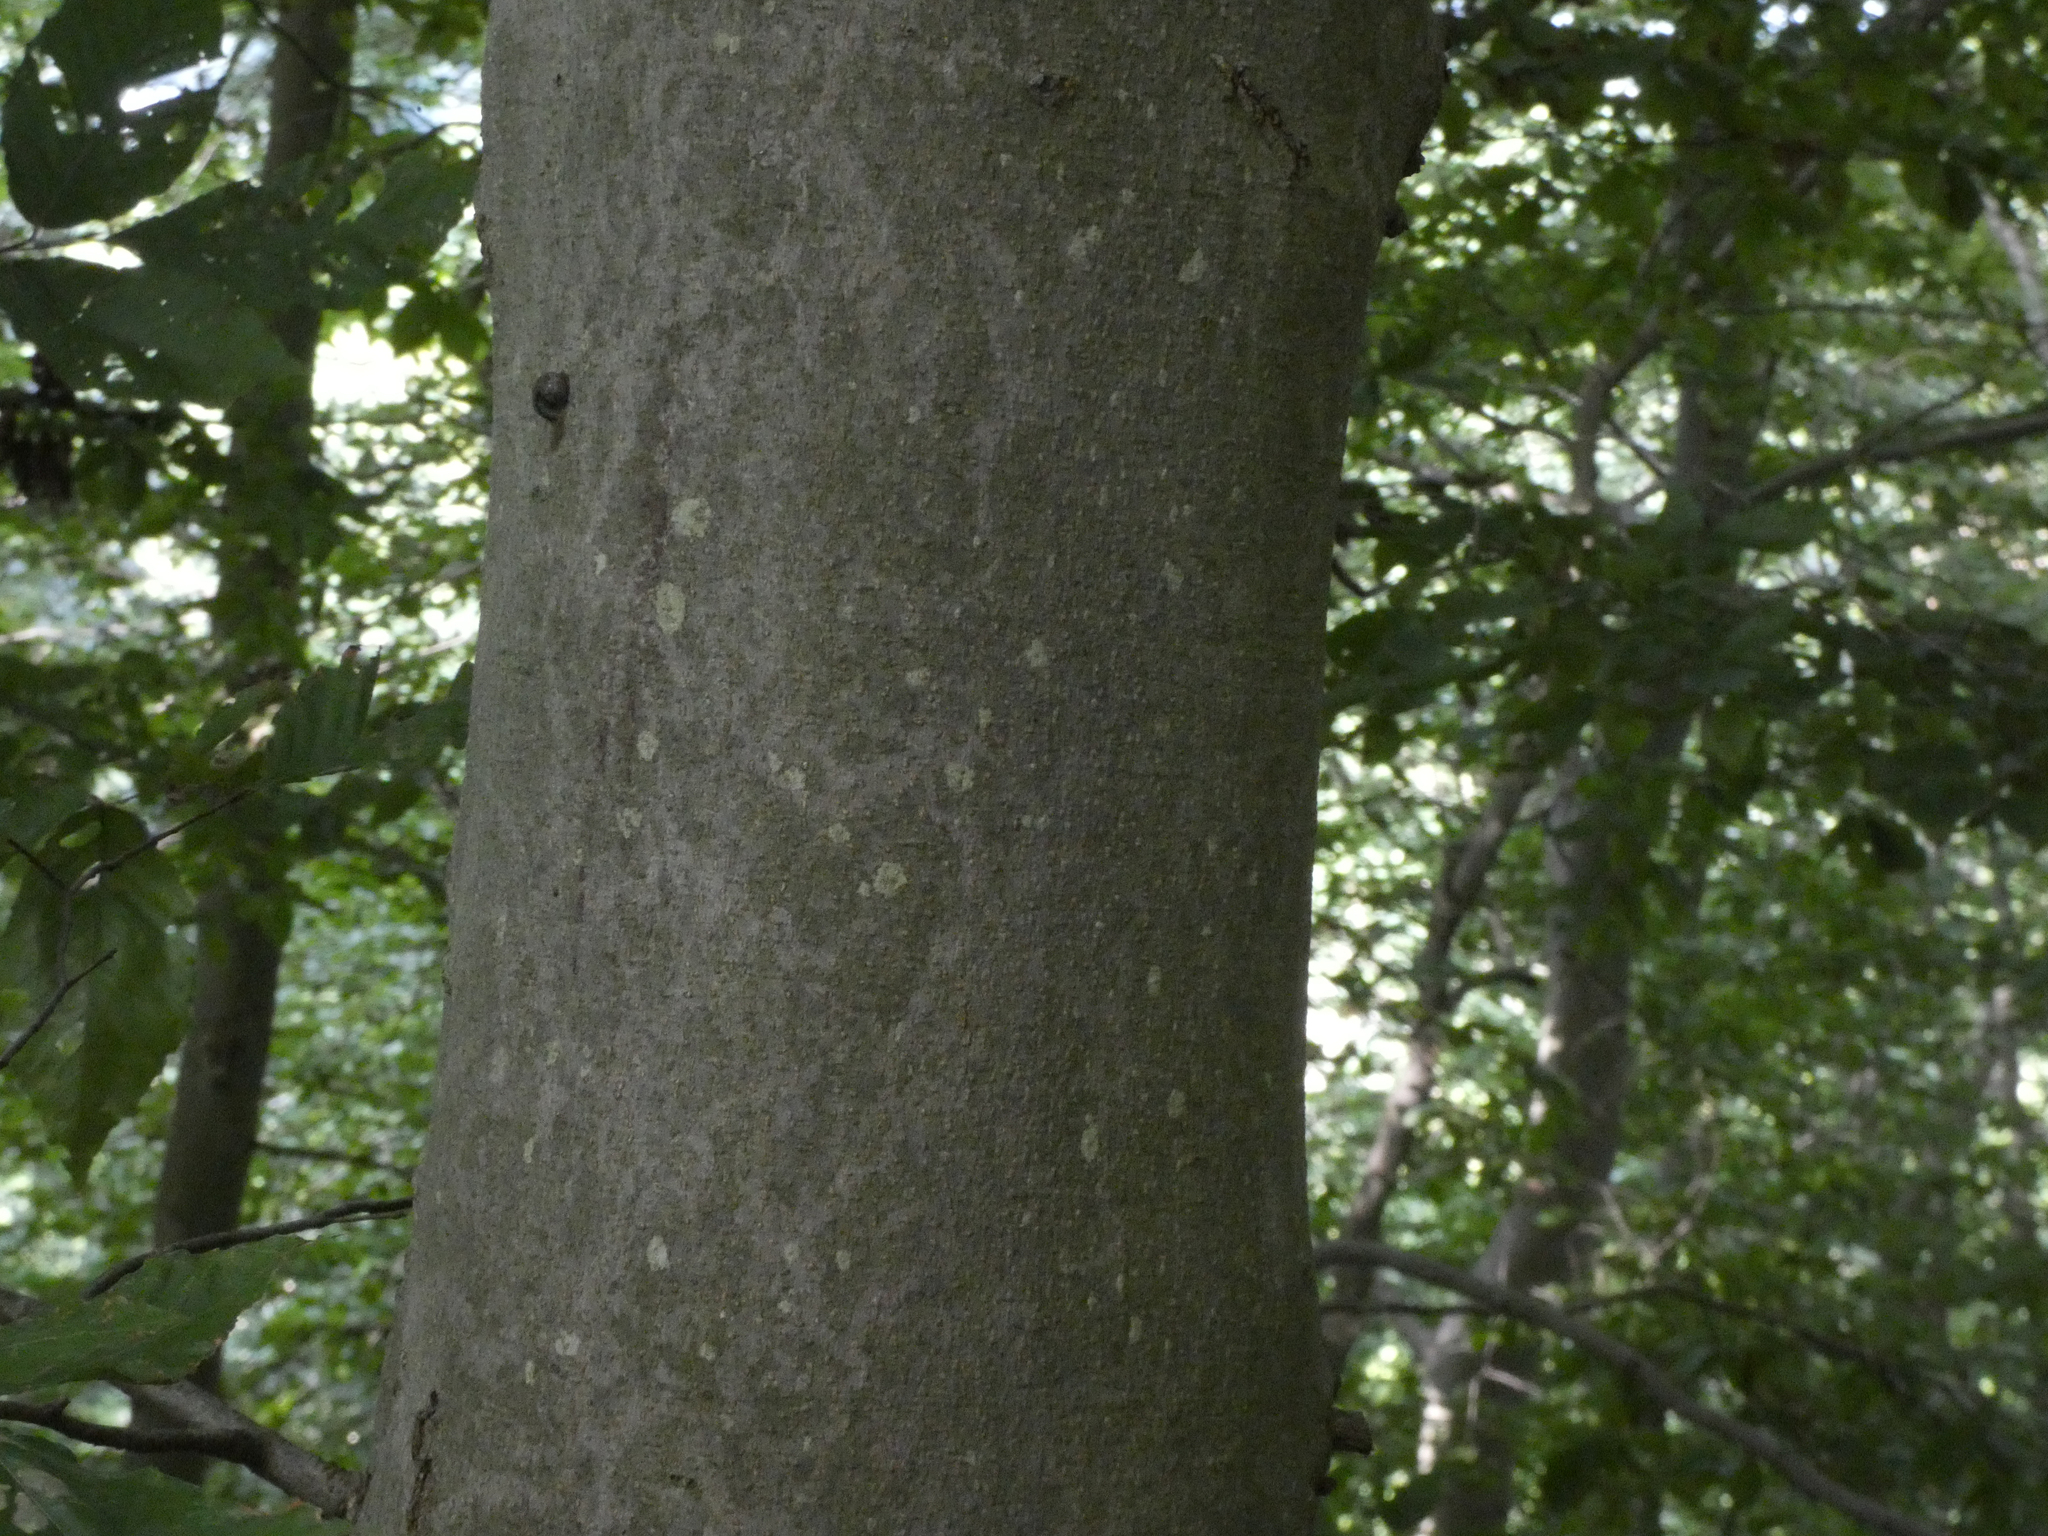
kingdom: Plantae
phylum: Tracheophyta
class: Magnoliopsida
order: Fagales
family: Fagaceae
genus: Fagus
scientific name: Fagus grandifolia
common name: American beech
